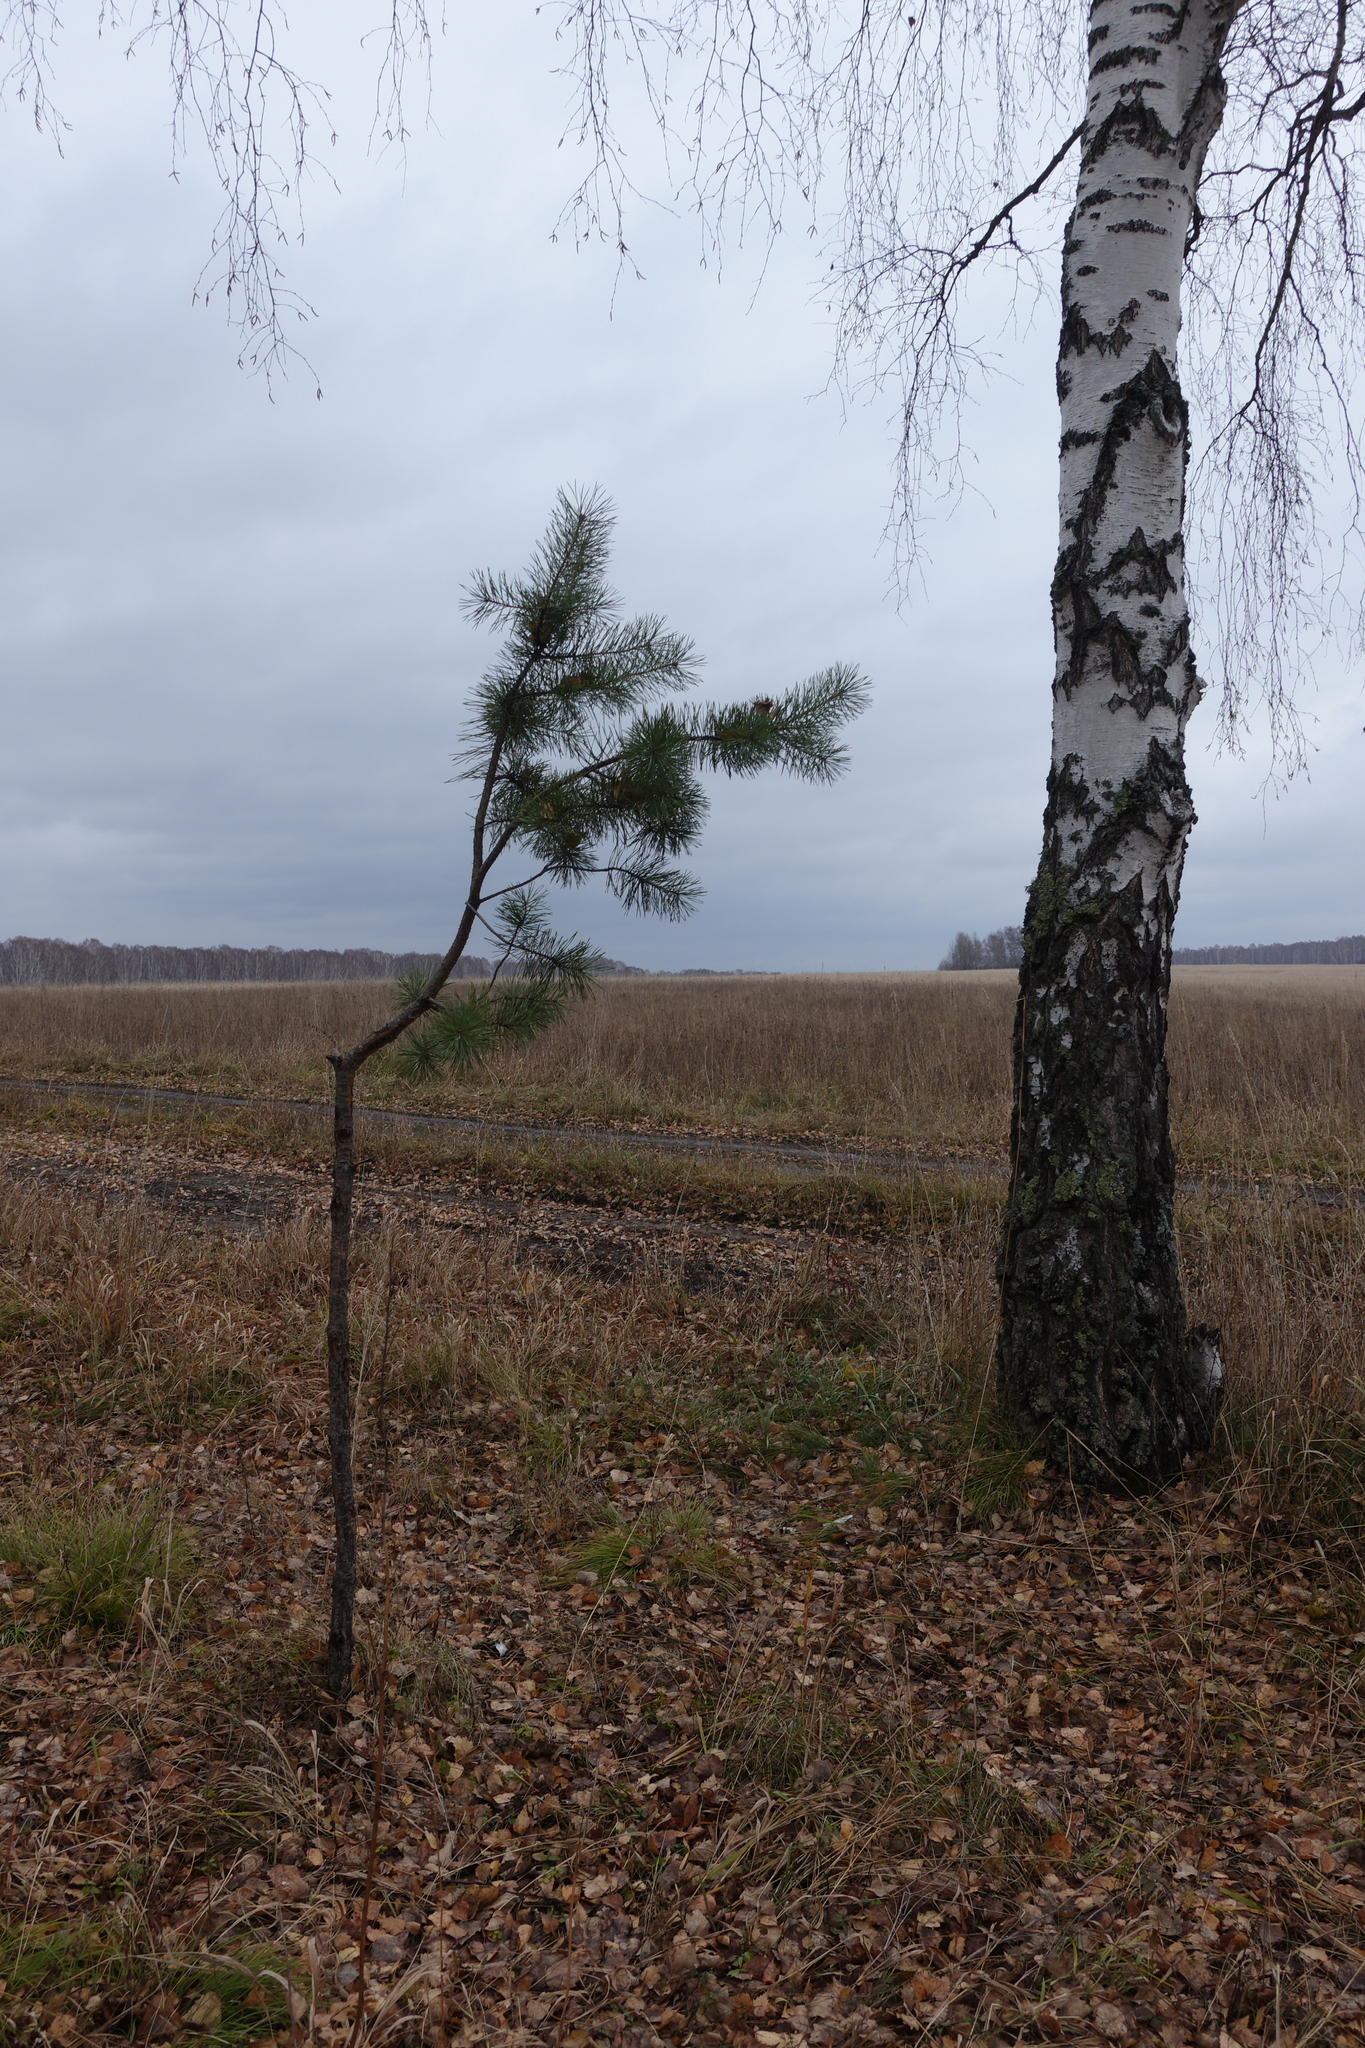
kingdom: Plantae
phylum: Tracheophyta
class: Pinopsida
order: Pinales
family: Pinaceae
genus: Pinus
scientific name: Pinus sylvestris
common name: Scots pine
